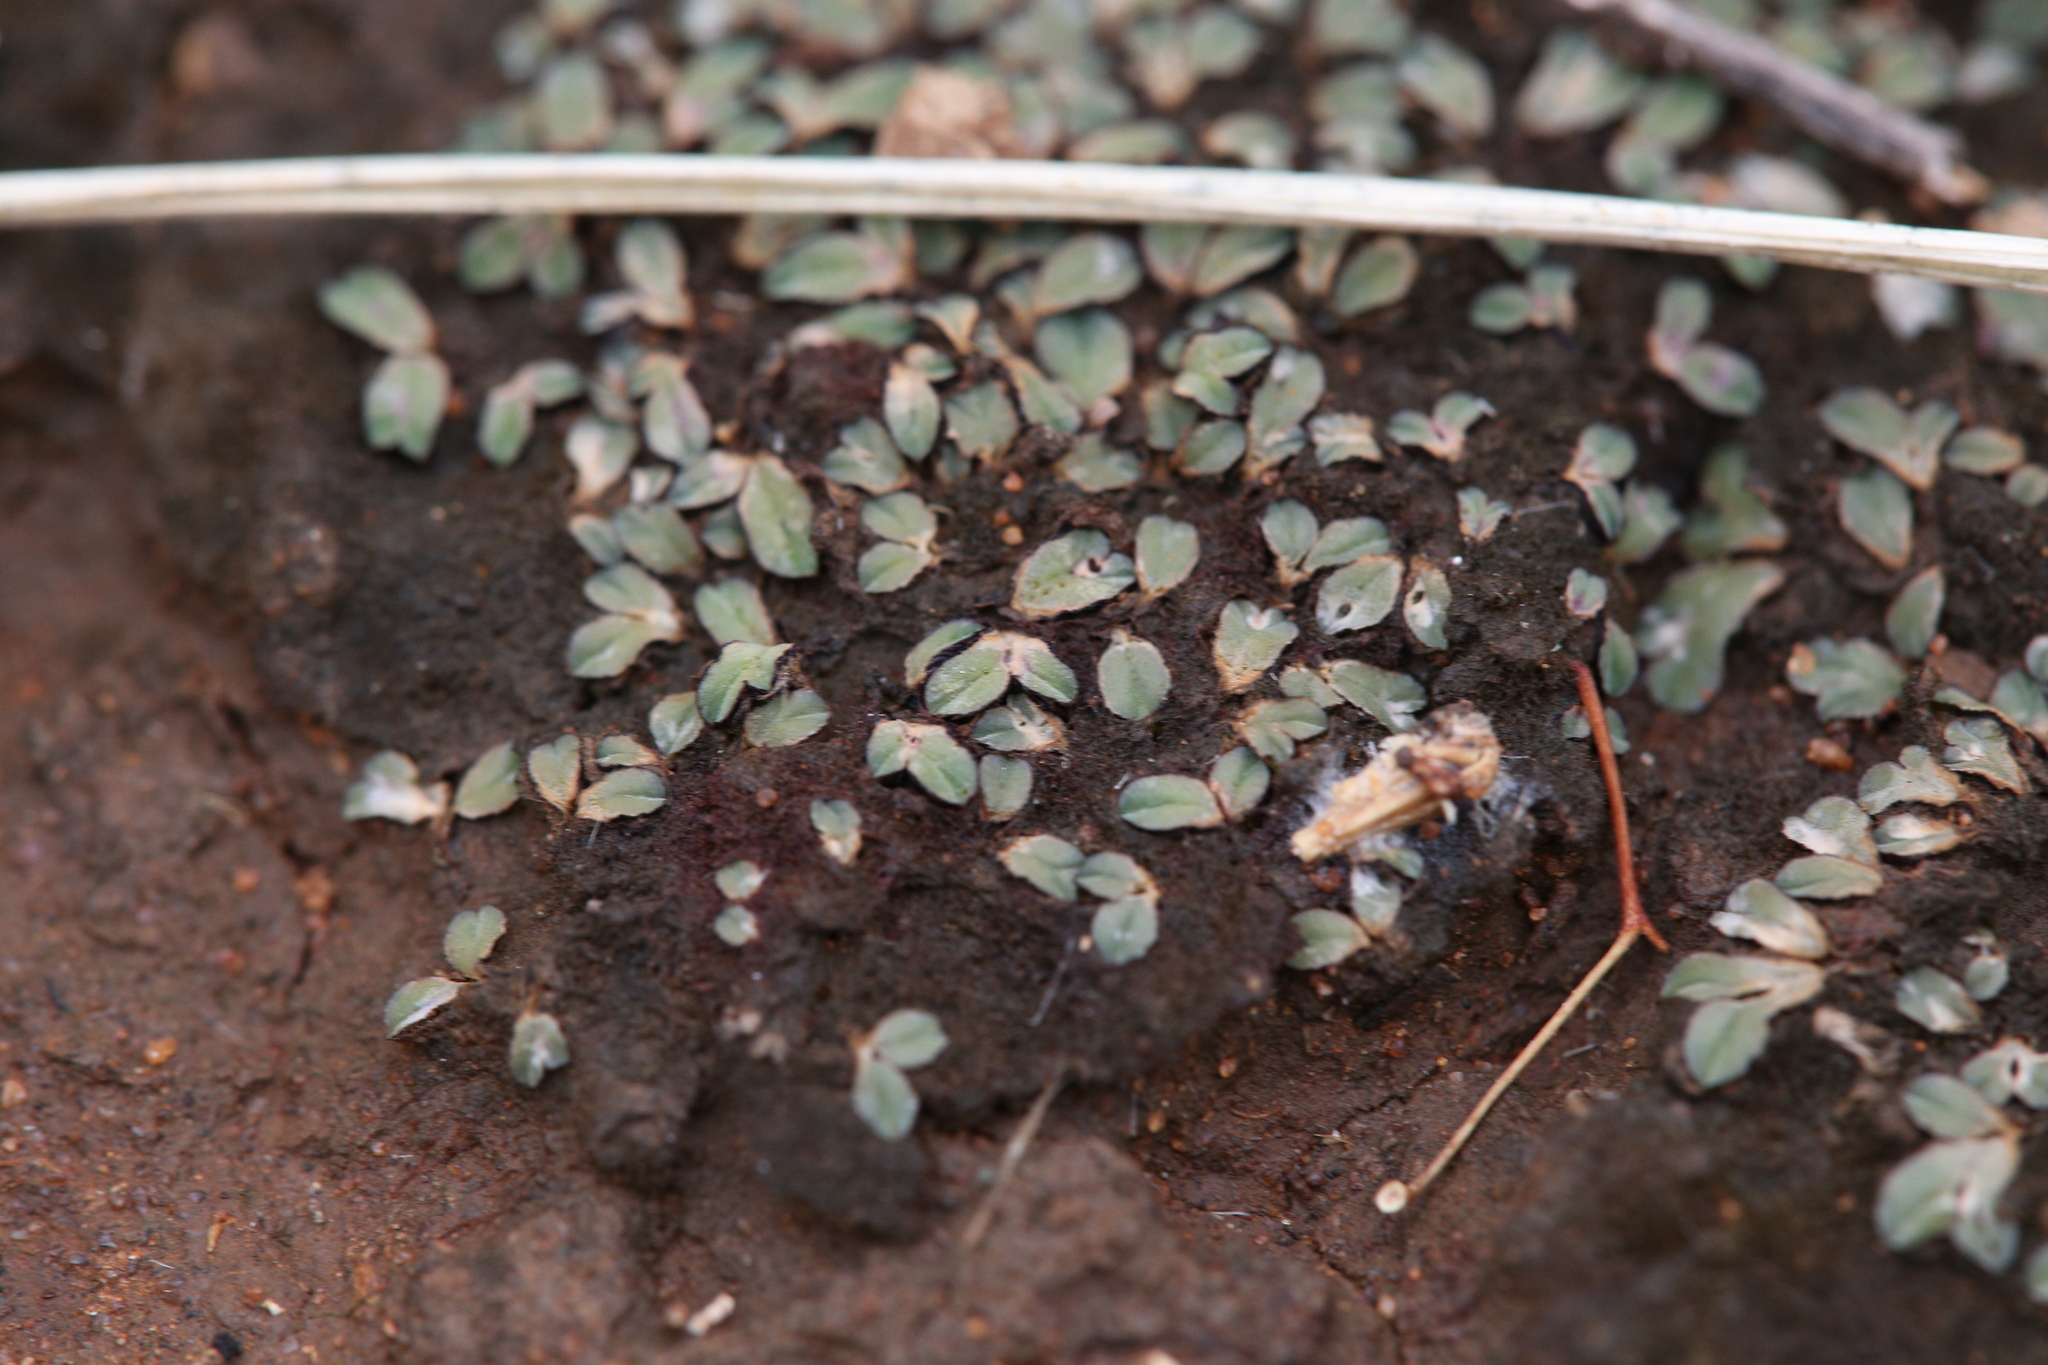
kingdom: Plantae
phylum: Marchantiophyta
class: Marchantiopsida
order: Marchantiales
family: Ricciaceae
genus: Riccia
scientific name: Riccia billardierei
